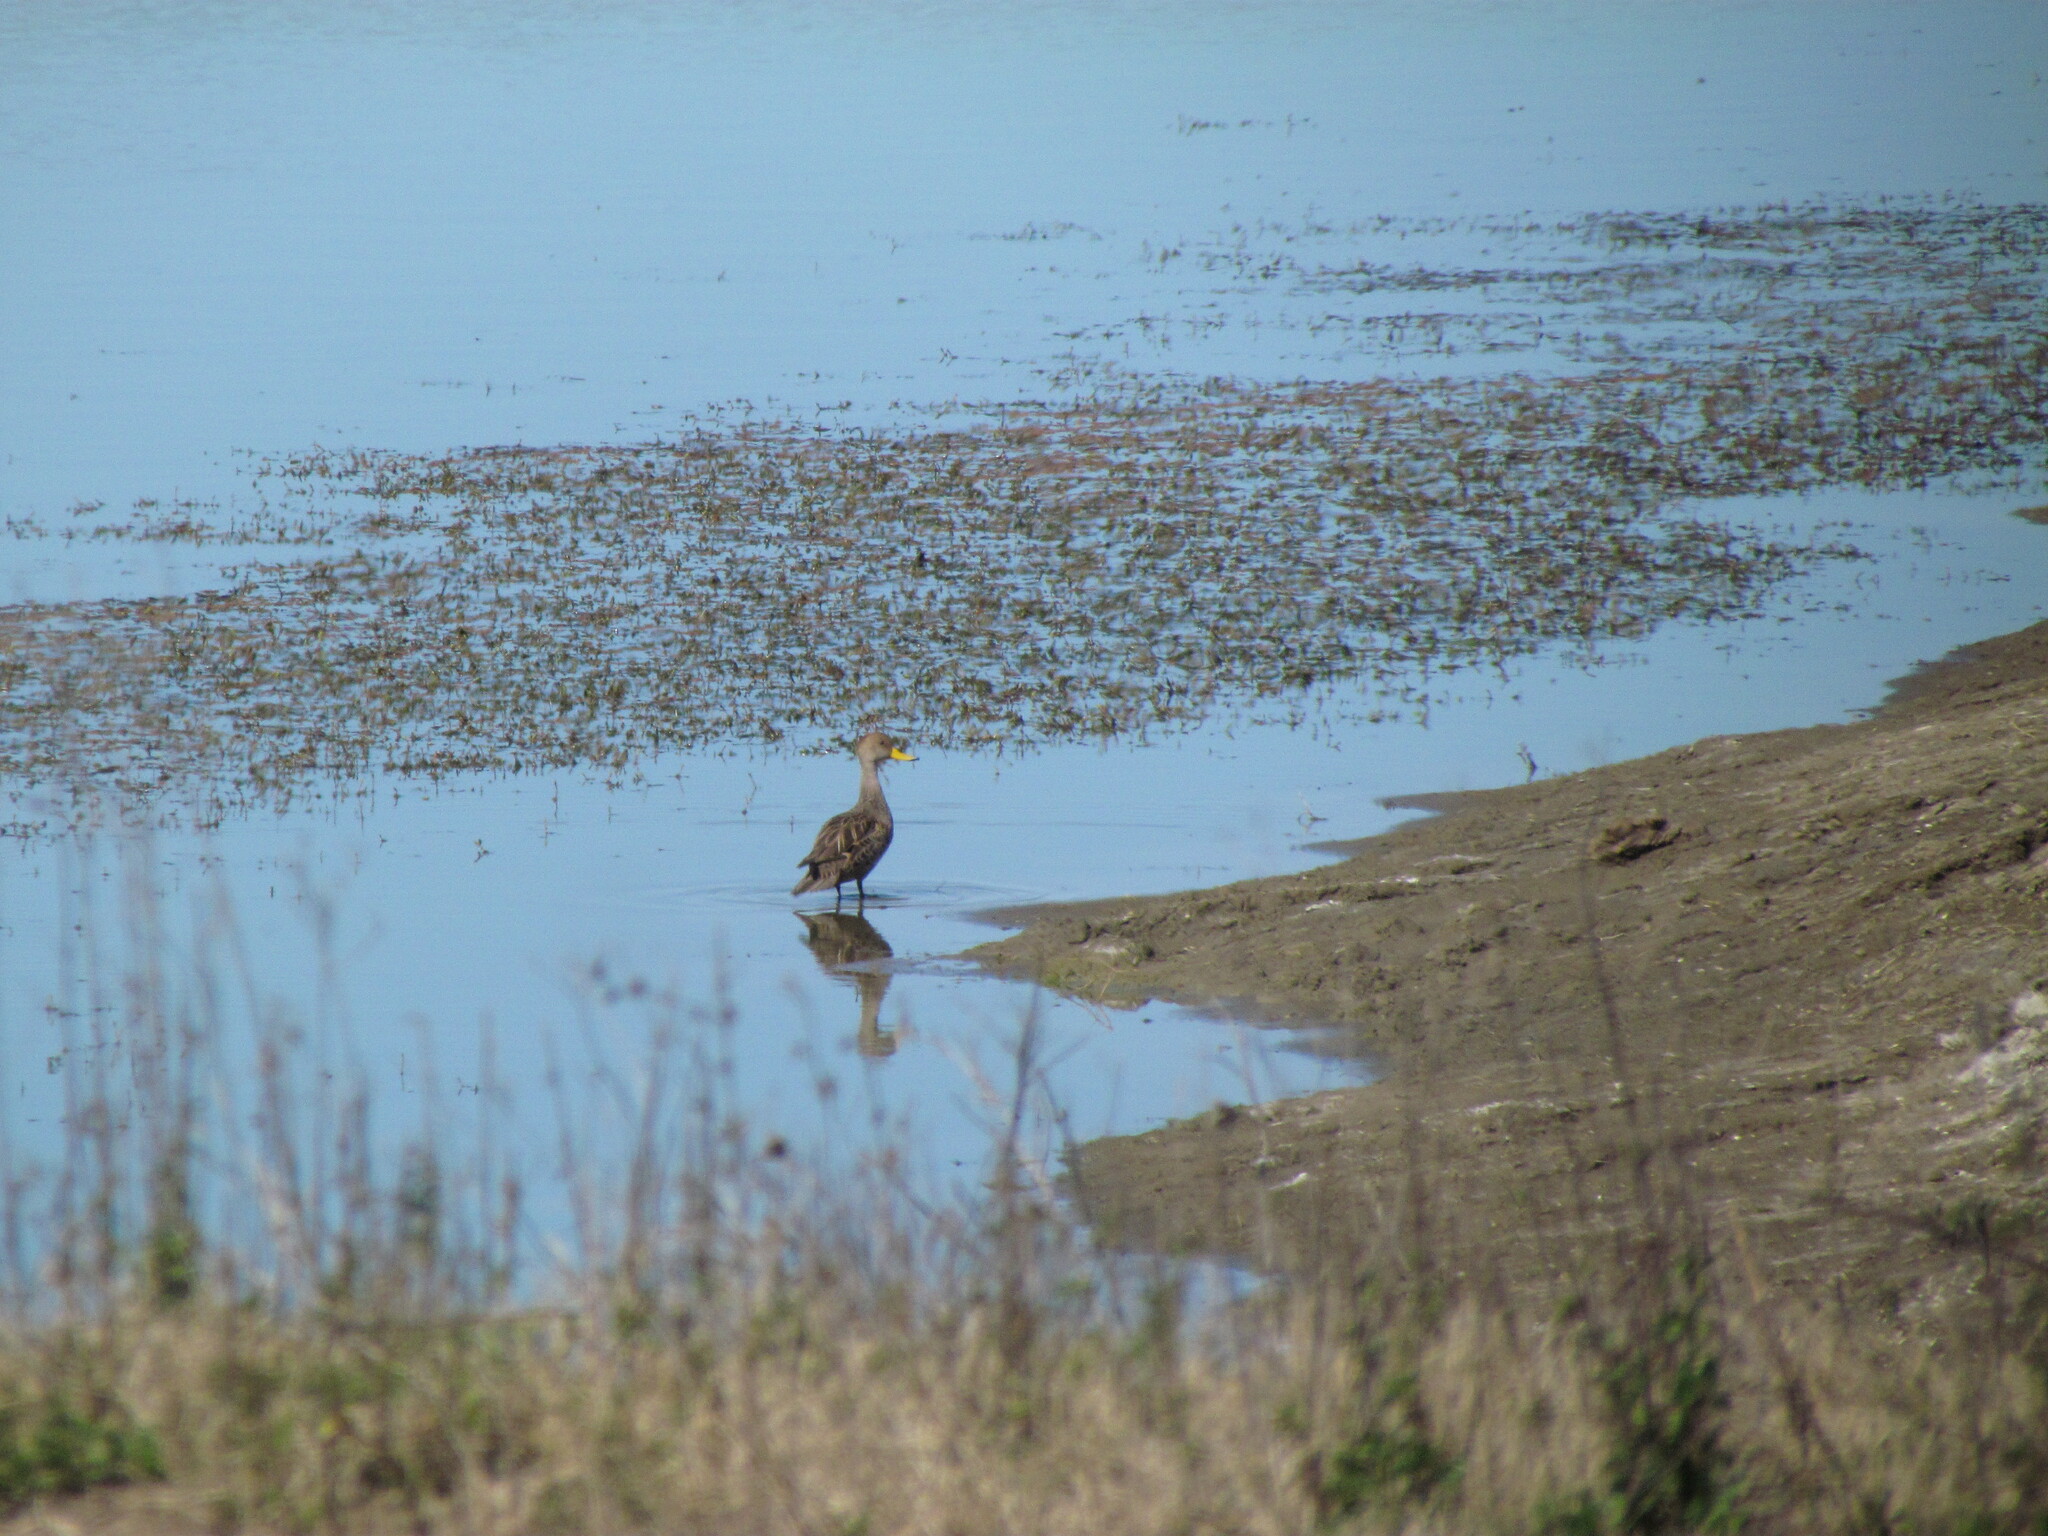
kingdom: Animalia
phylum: Chordata
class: Aves
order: Anseriformes
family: Anatidae
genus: Anas
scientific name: Anas georgica
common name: Yellow-billed pintail
